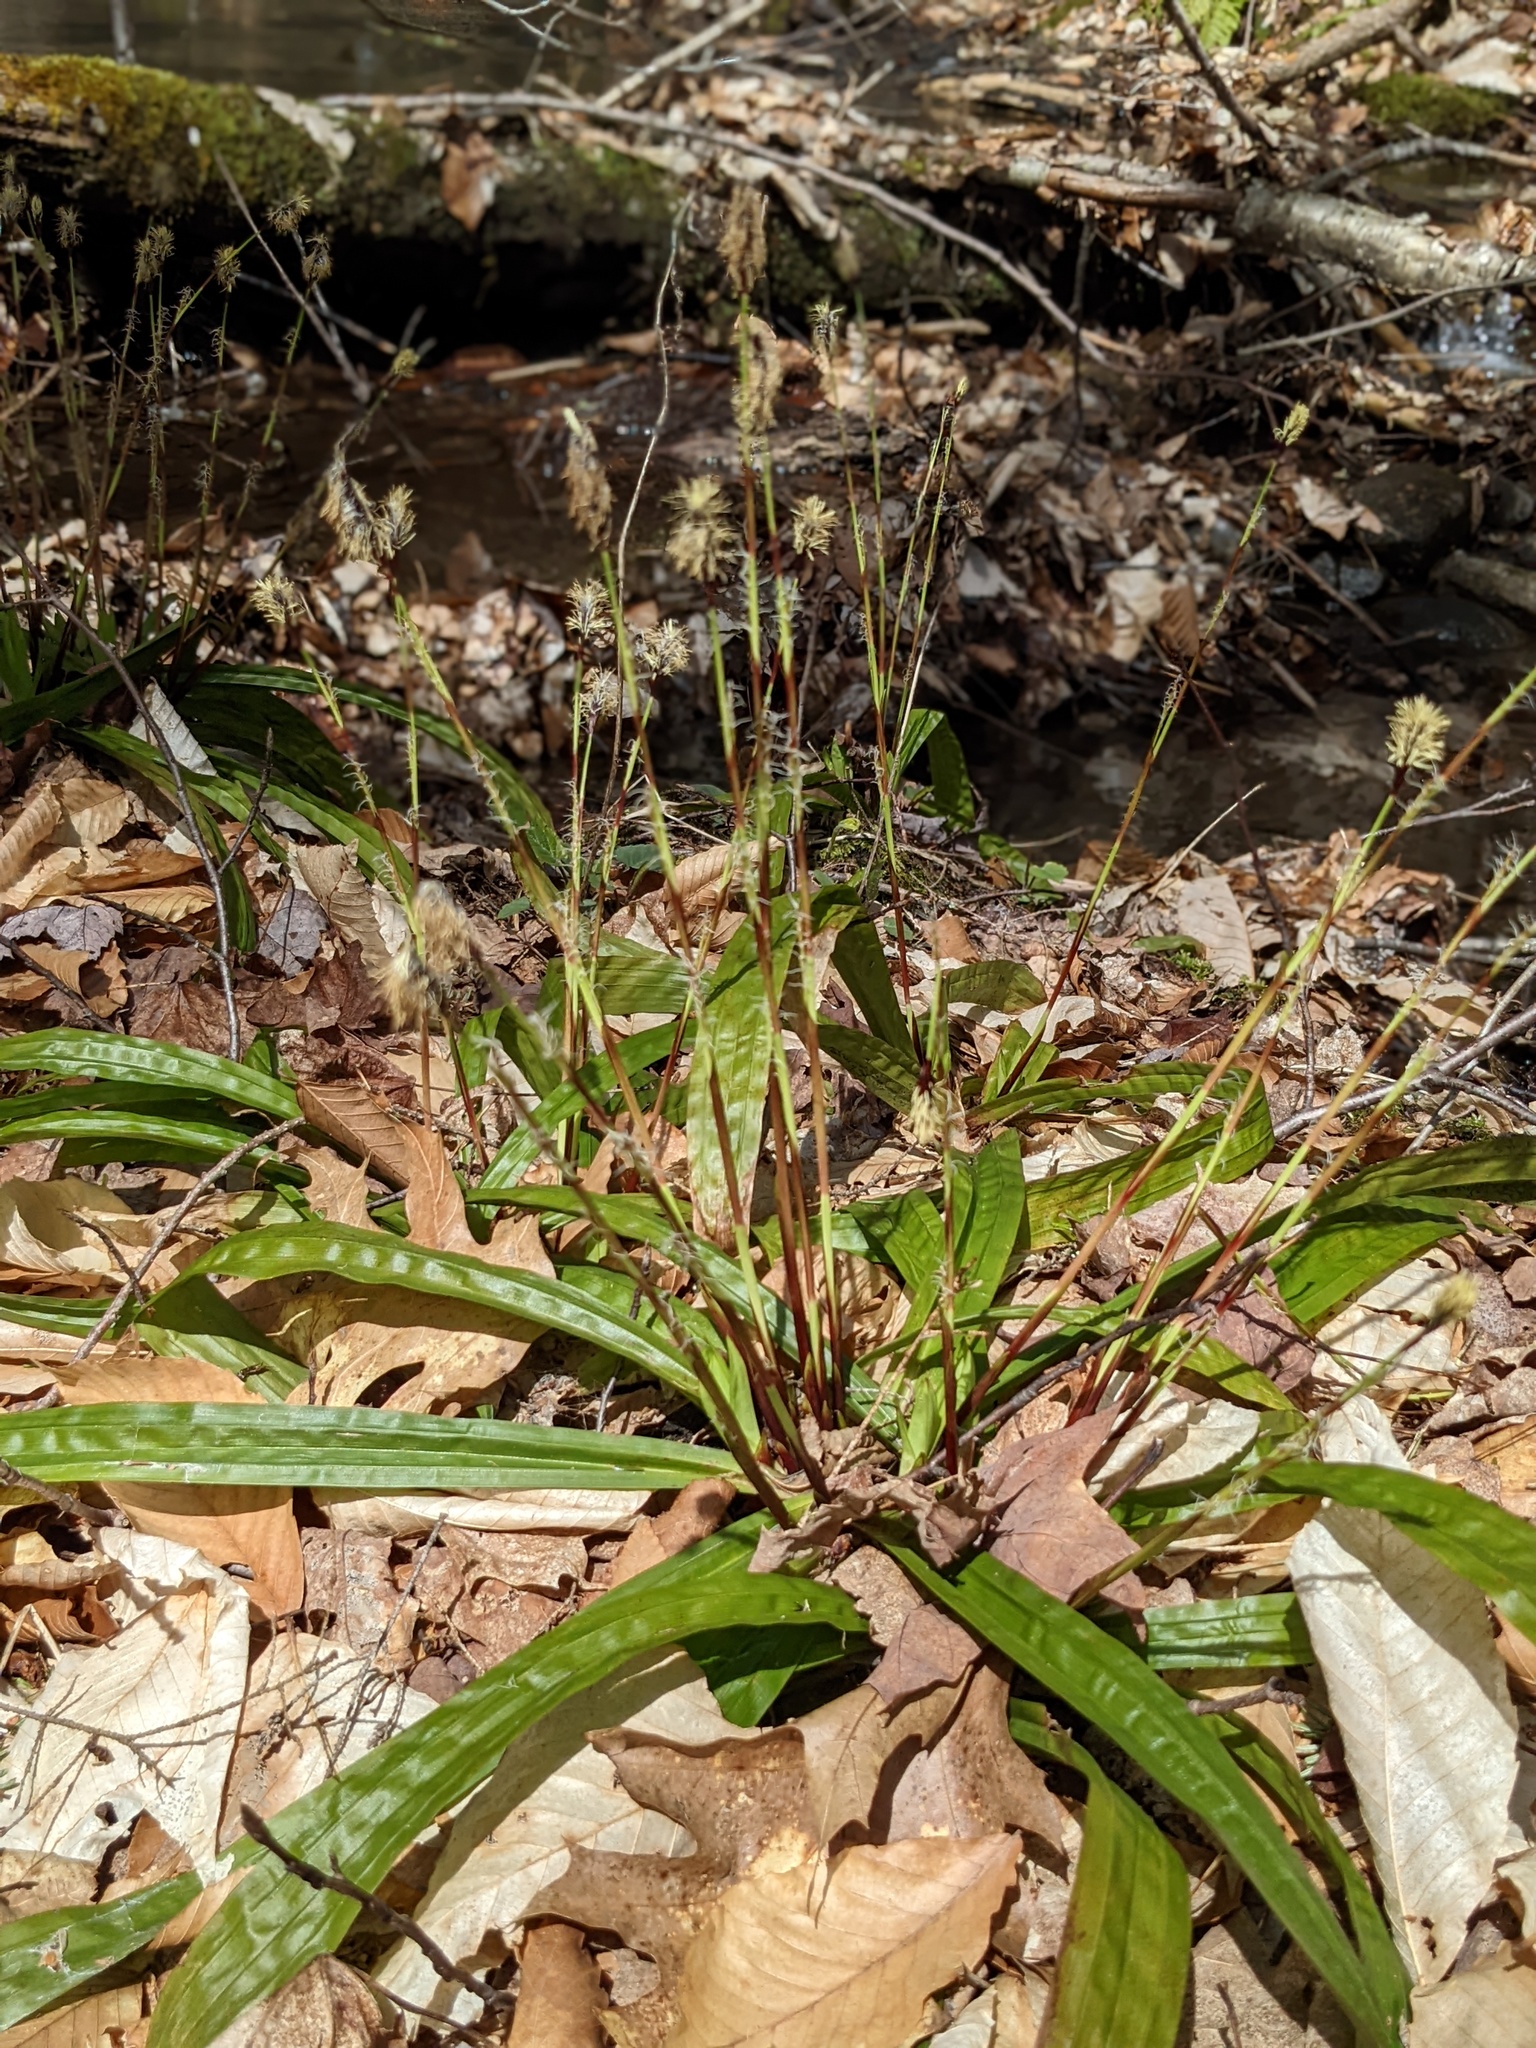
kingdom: Plantae
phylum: Tracheophyta
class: Liliopsida
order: Poales
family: Cyperaceae
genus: Carex
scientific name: Carex plantaginea
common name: Plantain-leaved sedge
